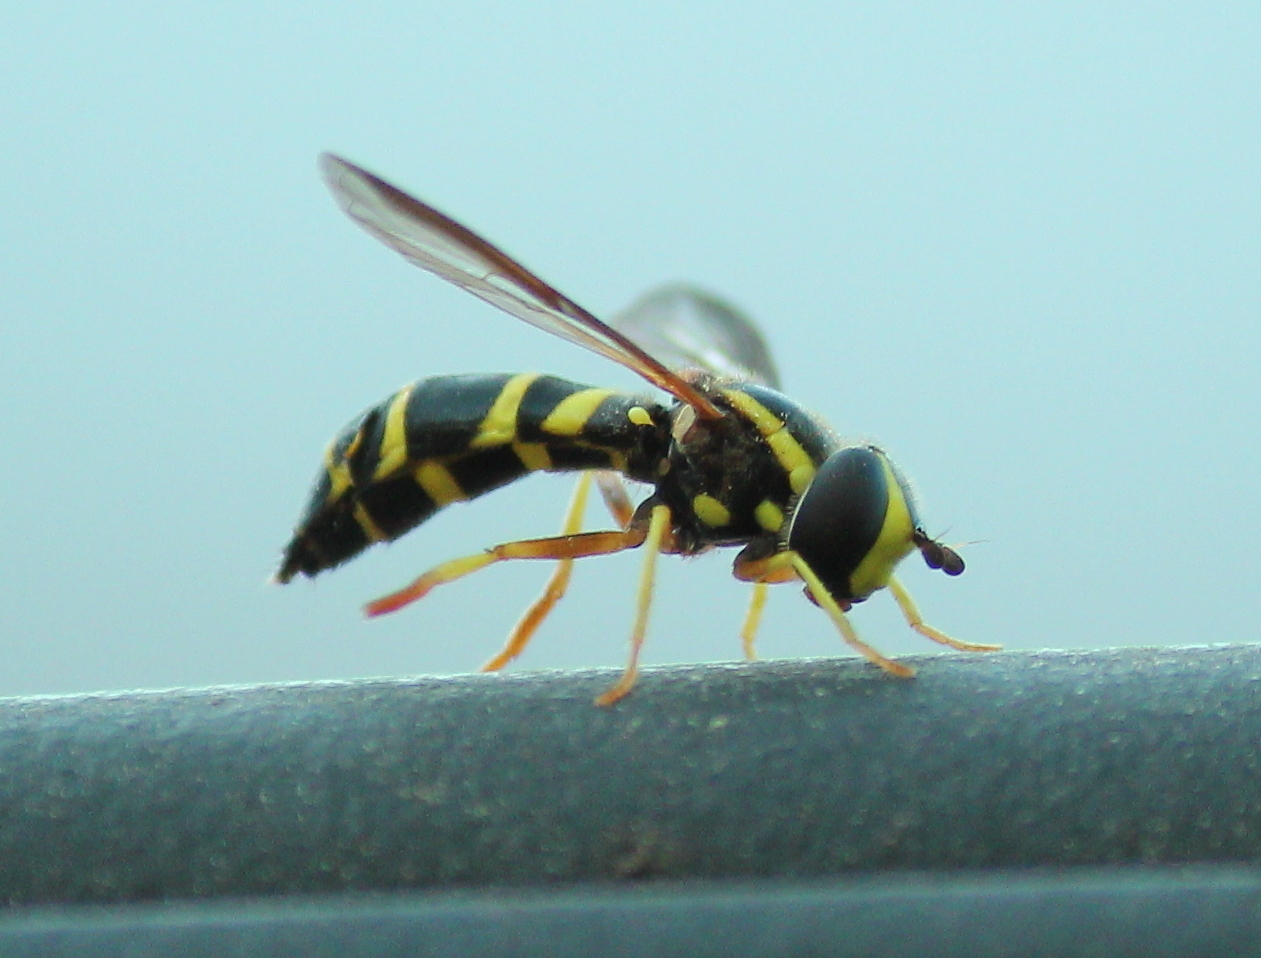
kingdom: Animalia
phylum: Arthropoda
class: Insecta
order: Diptera
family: Syrphidae
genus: Doros
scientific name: Doros aequalis
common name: Canadian potter fly
